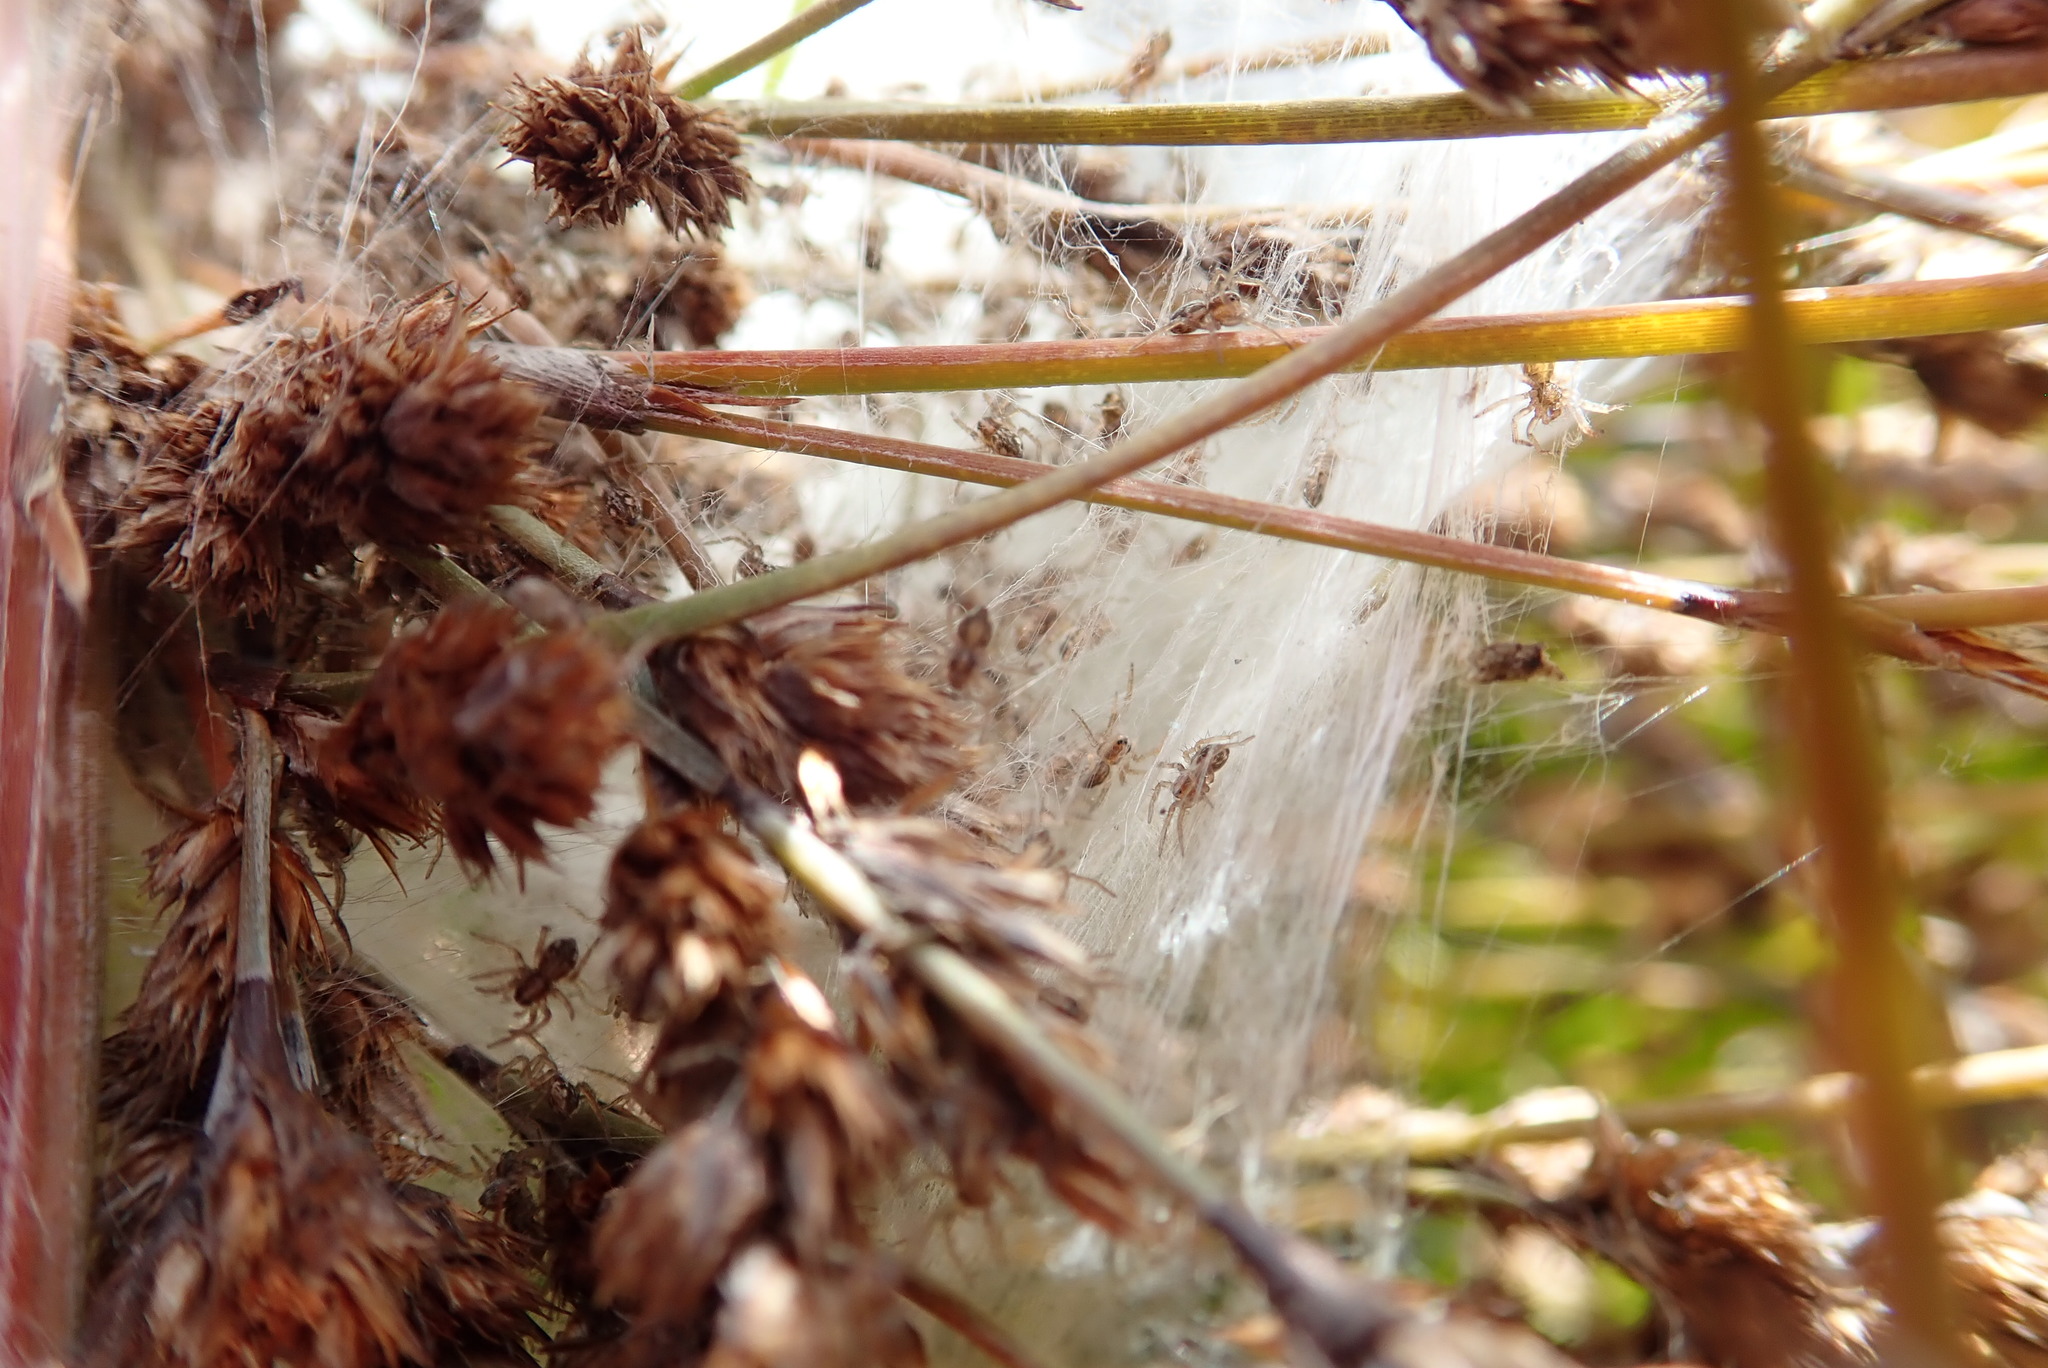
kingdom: Animalia
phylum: Arthropoda
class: Arachnida
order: Araneae
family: Pisauridae
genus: Dolomedes
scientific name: Dolomedes minor
